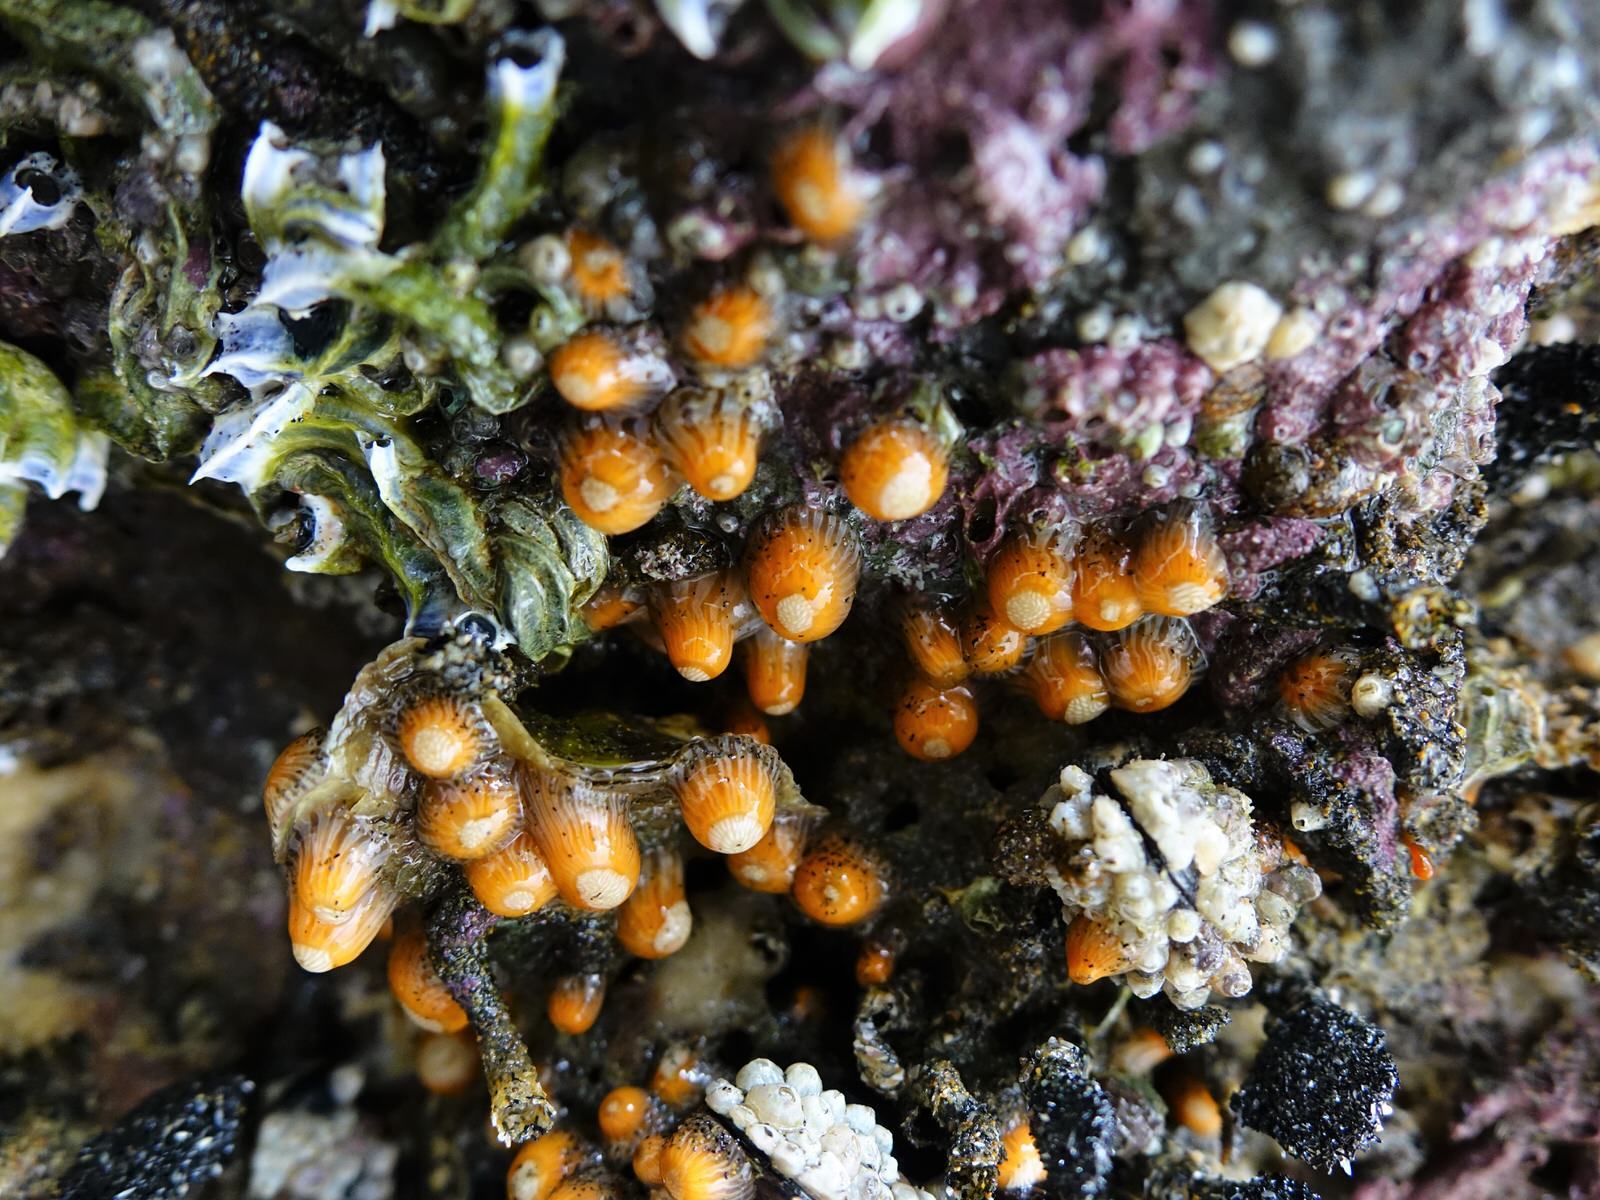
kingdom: Animalia
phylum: Cnidaria
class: Anthozoa
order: Actiniaria
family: Sagartiidae
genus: Anthothoe
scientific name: Anthothoe albocincta
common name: Orange striped anemone
